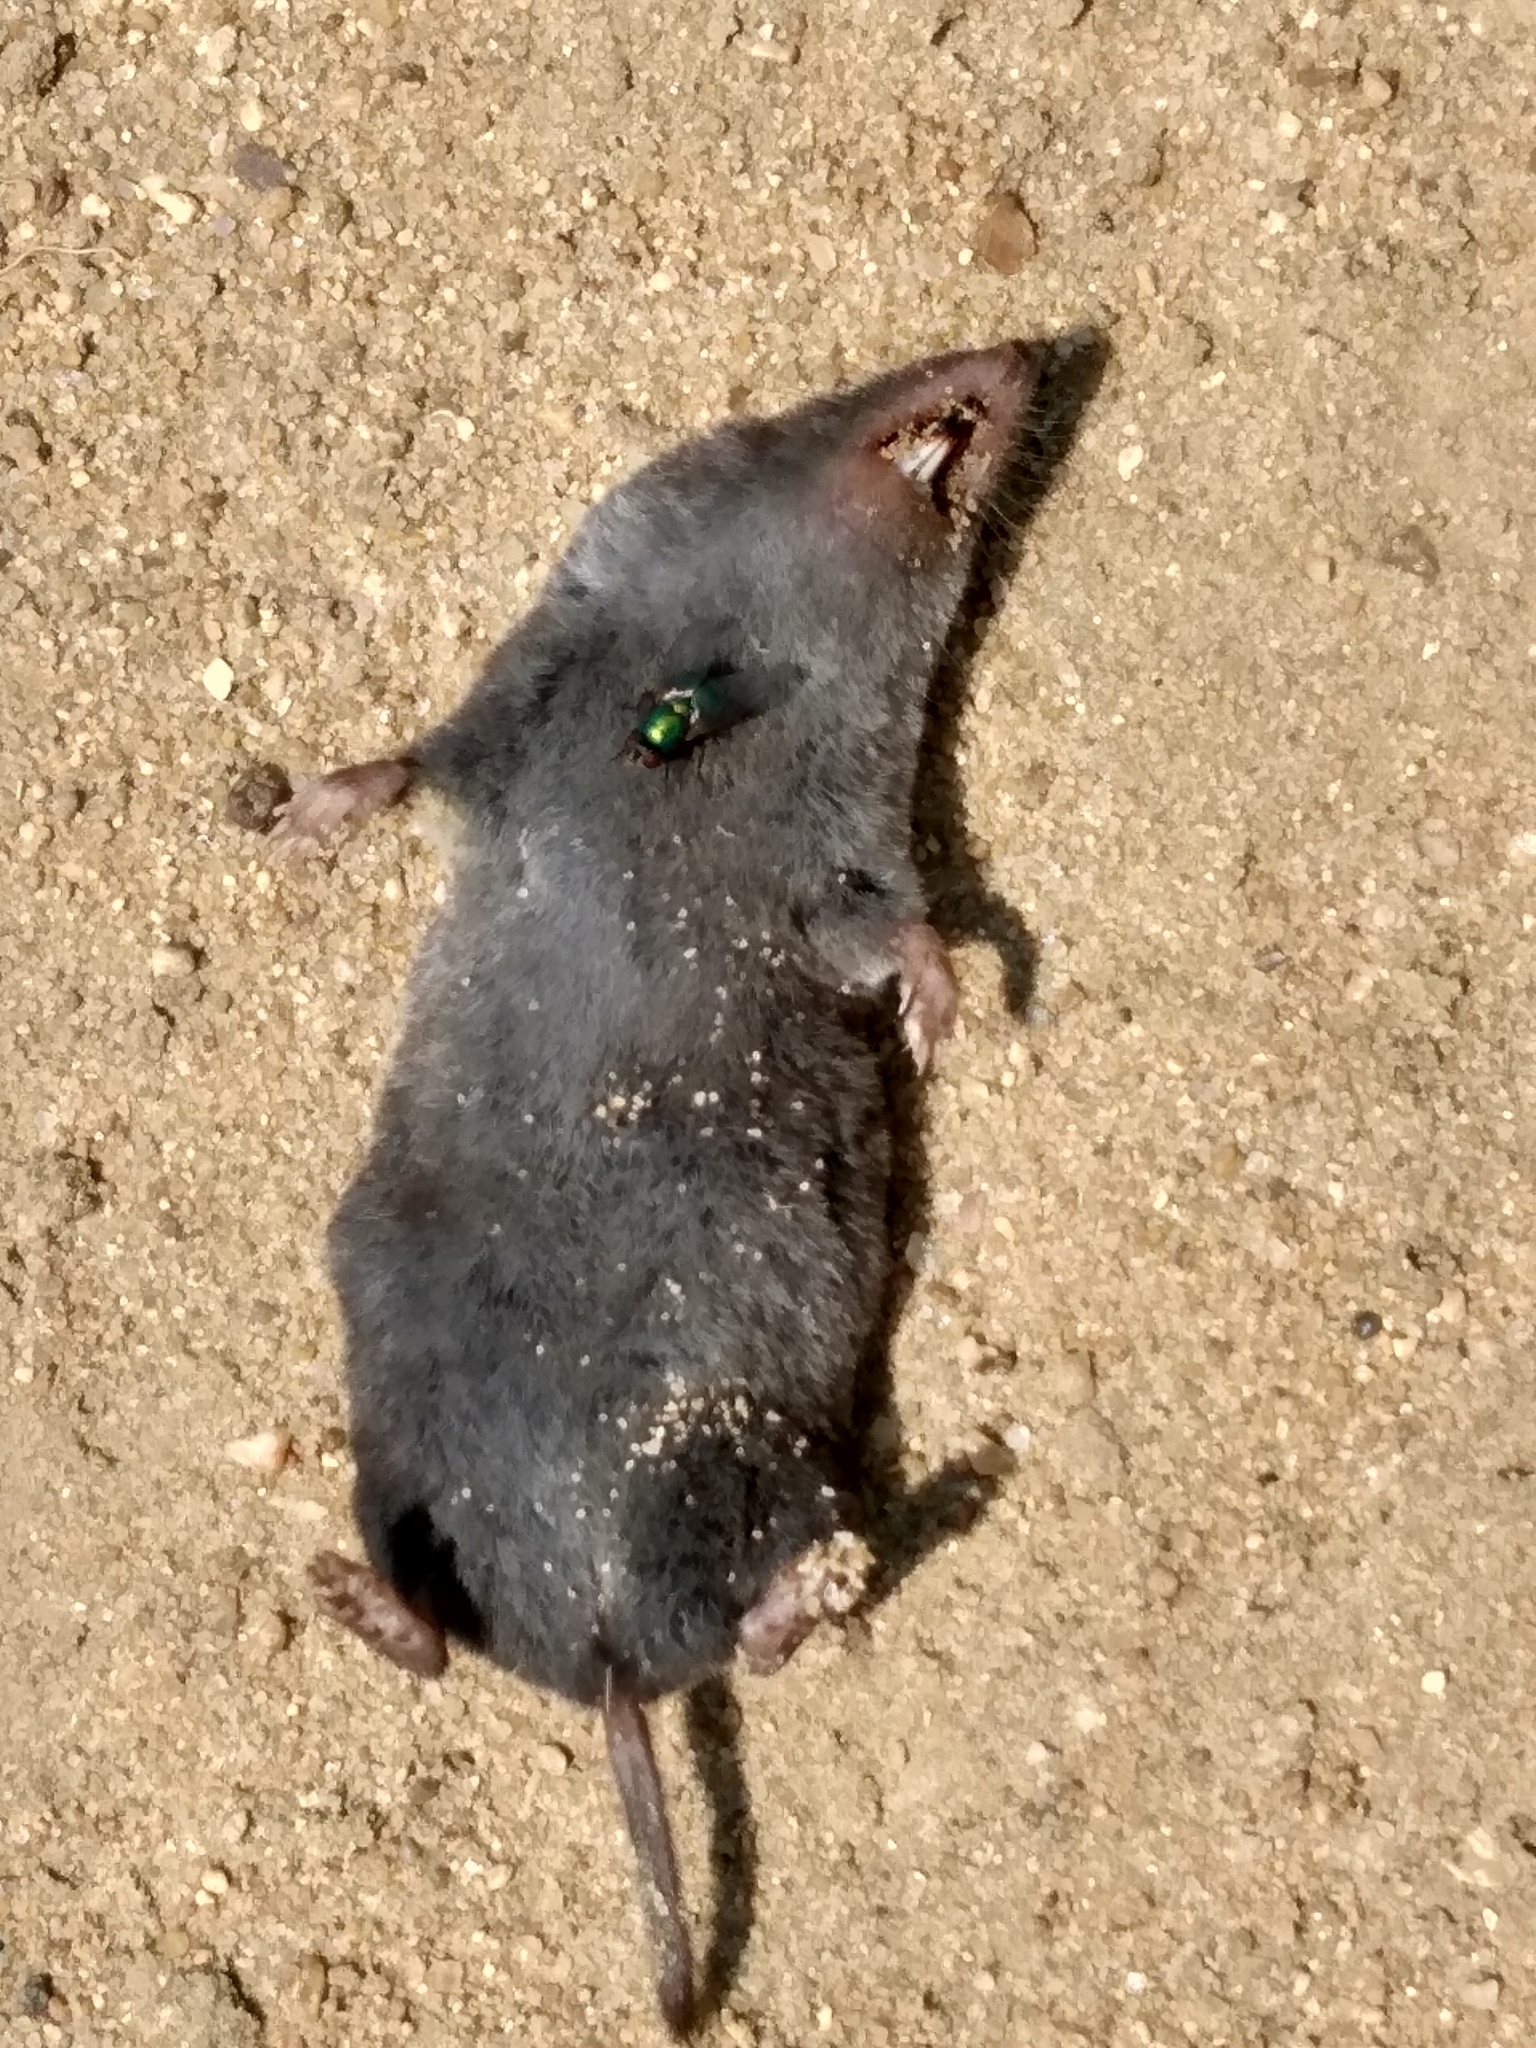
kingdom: Animalia
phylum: Chordata
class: Mammalia
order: Soricomorpha
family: Soricidae
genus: Blarina
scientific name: Blarina brevicauda
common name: Northern short-tailed shrew
